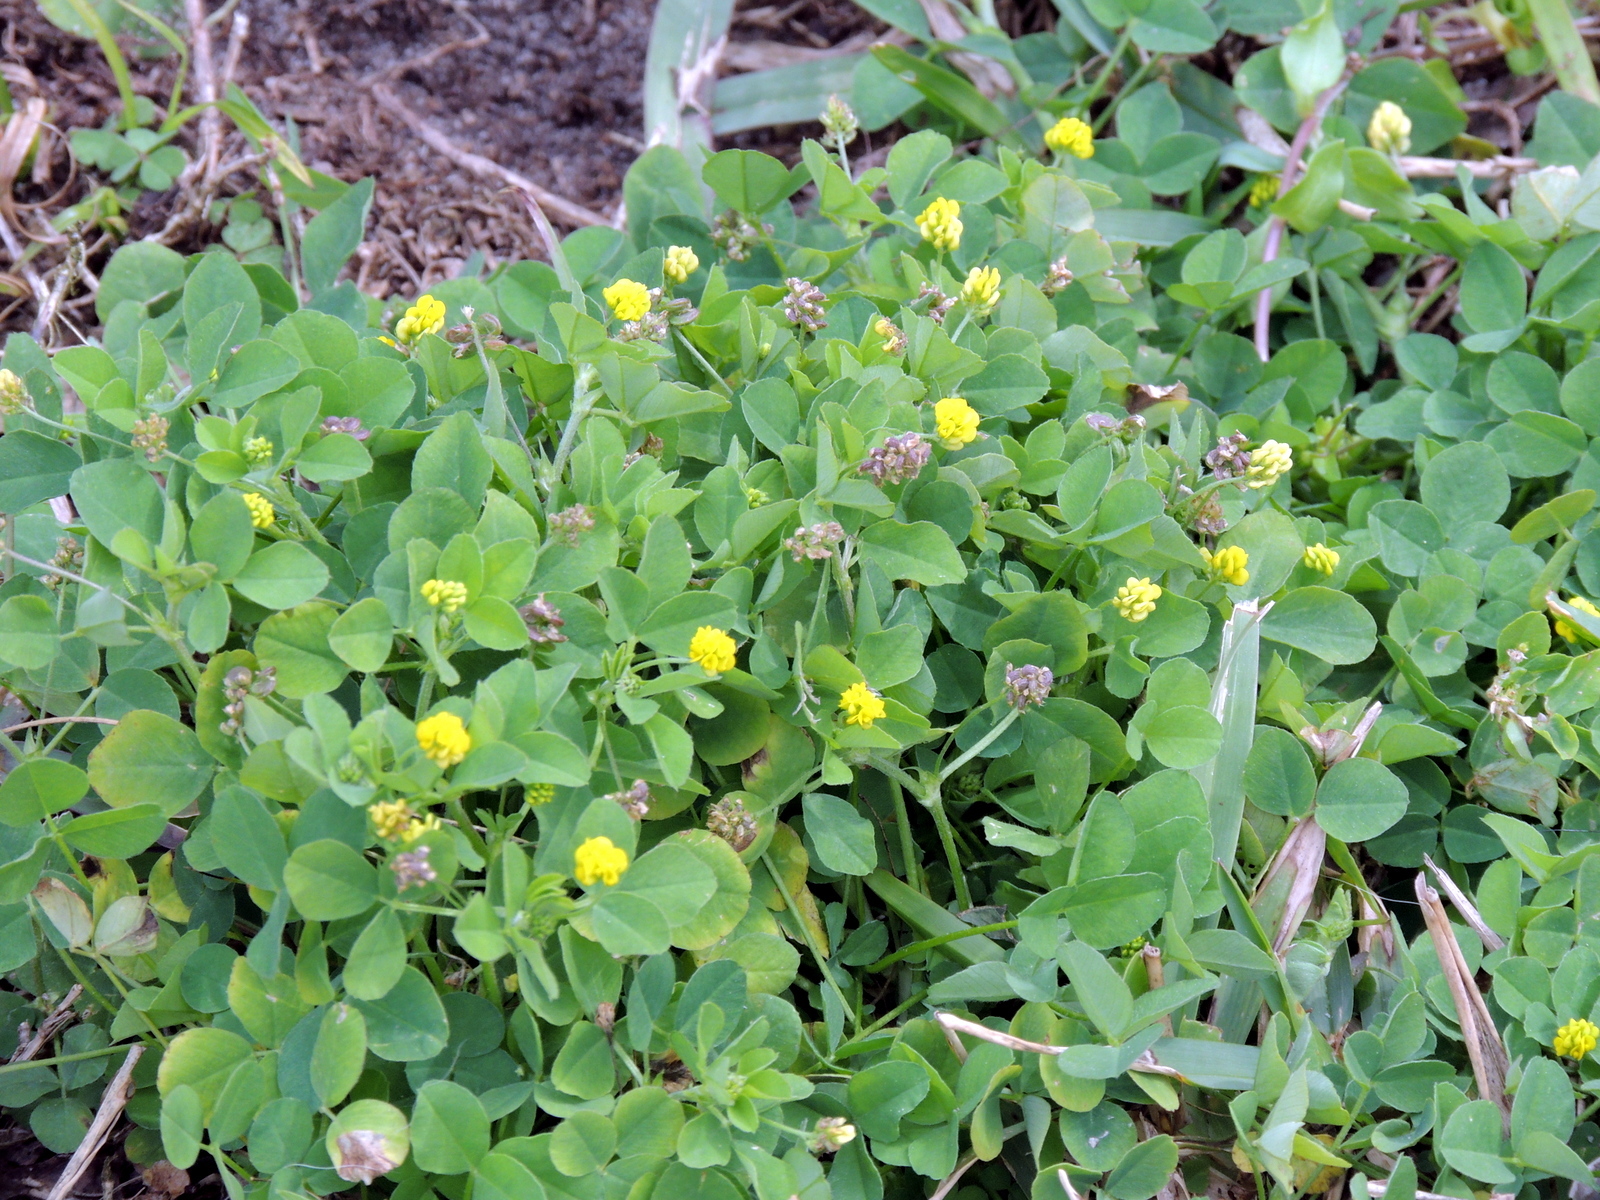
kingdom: Plantae
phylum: Tracheophyta
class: Magnoliopsida
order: Fabales
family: Fabaceae
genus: Medicago
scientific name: Medicago lupulina
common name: Black medick
